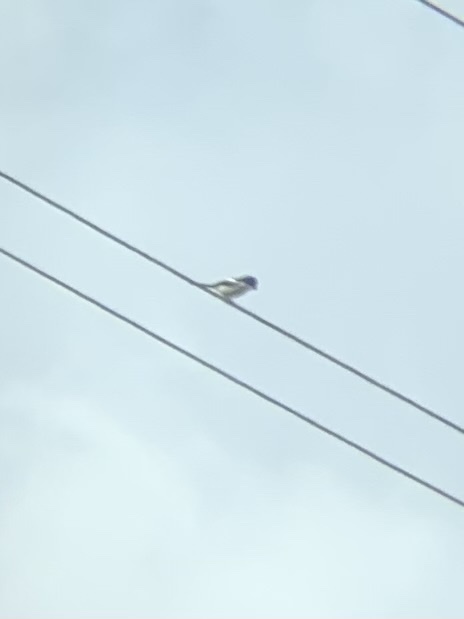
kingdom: Animalia
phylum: Chordata
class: Aves
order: Passeriformes
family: Laniidae
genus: Lanius
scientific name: Lanius collaris
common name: Southern fiscal
